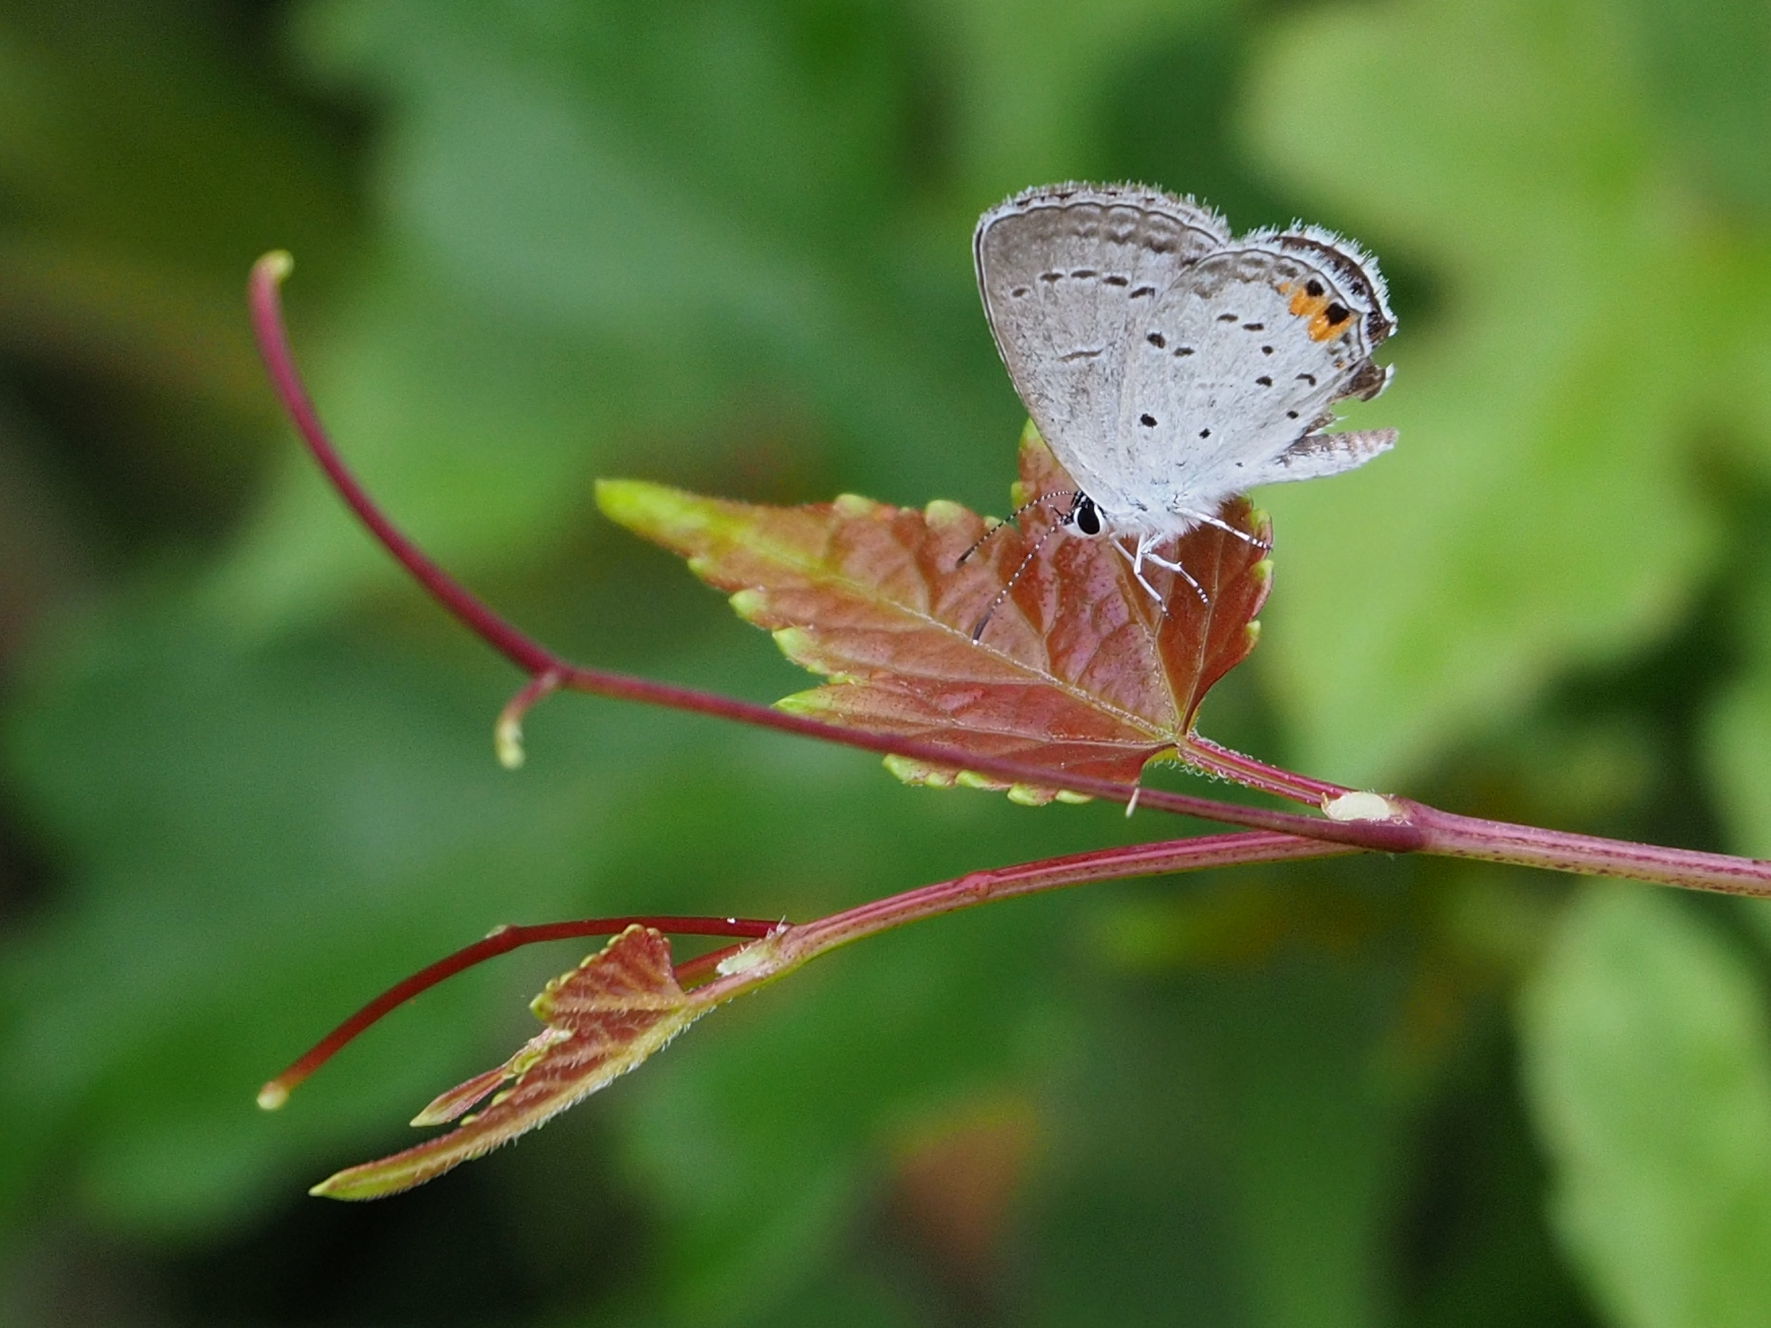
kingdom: Animalia
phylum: Arthropoda
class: Insecta
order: Lepidoptera
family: Lycaenidae
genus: Elkalyce
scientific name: Elkalyce comyntas
